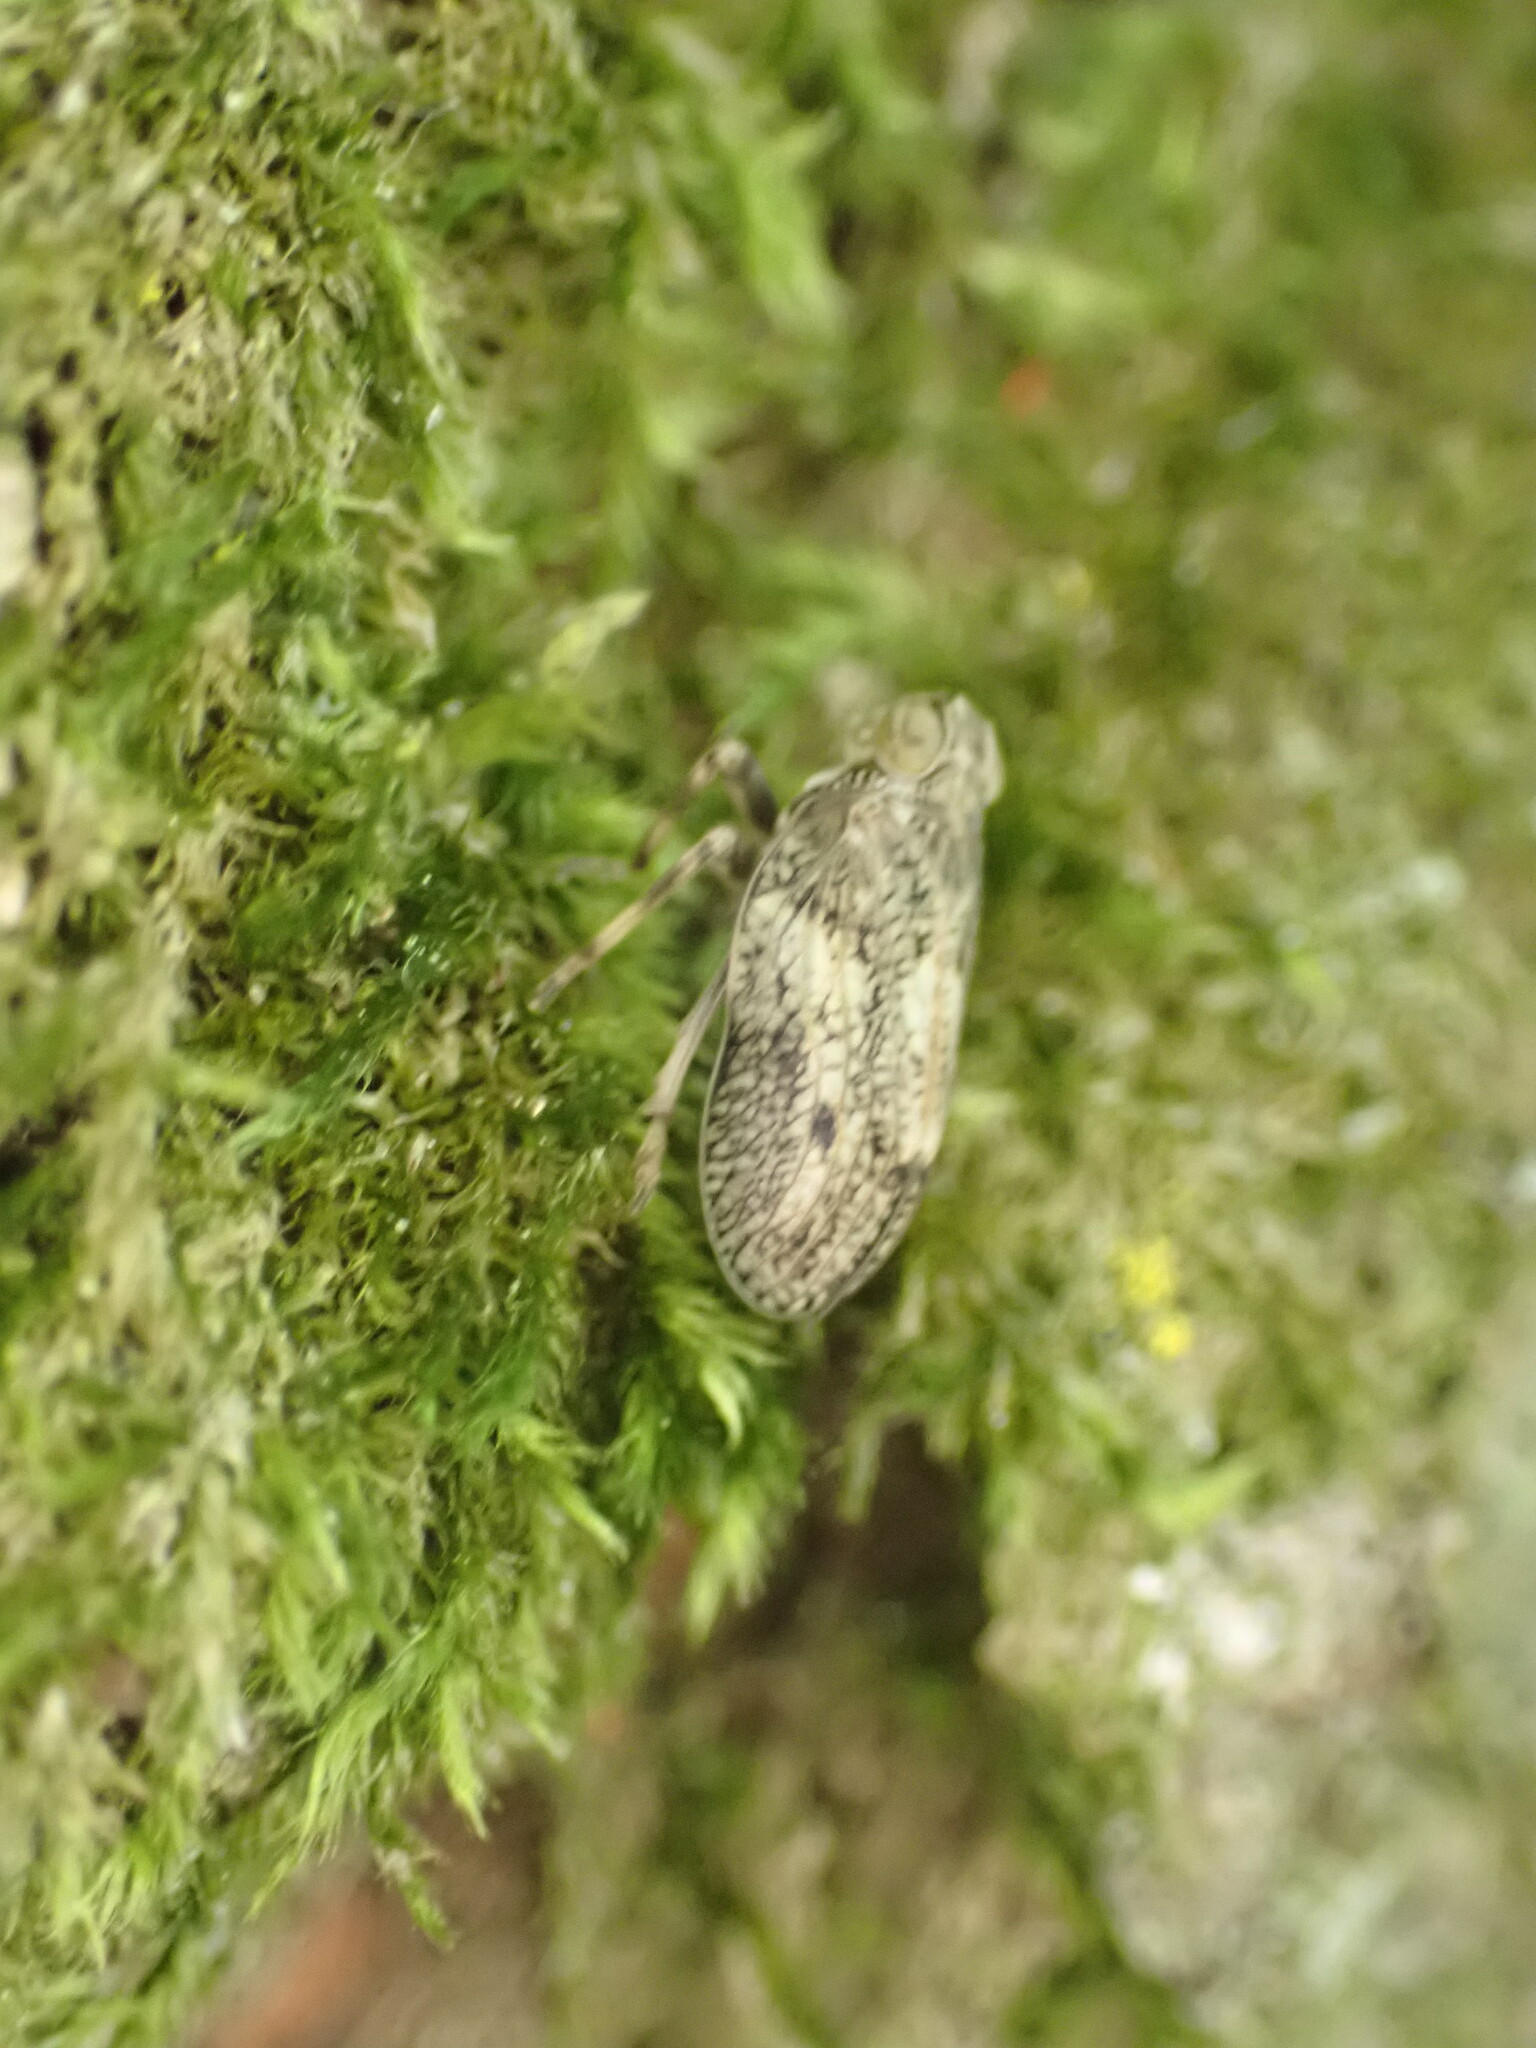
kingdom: Animalia
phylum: Arthropoda
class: Insecta
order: Hemiptera
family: Issidae
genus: Issus
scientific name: Issus coleoptratus
